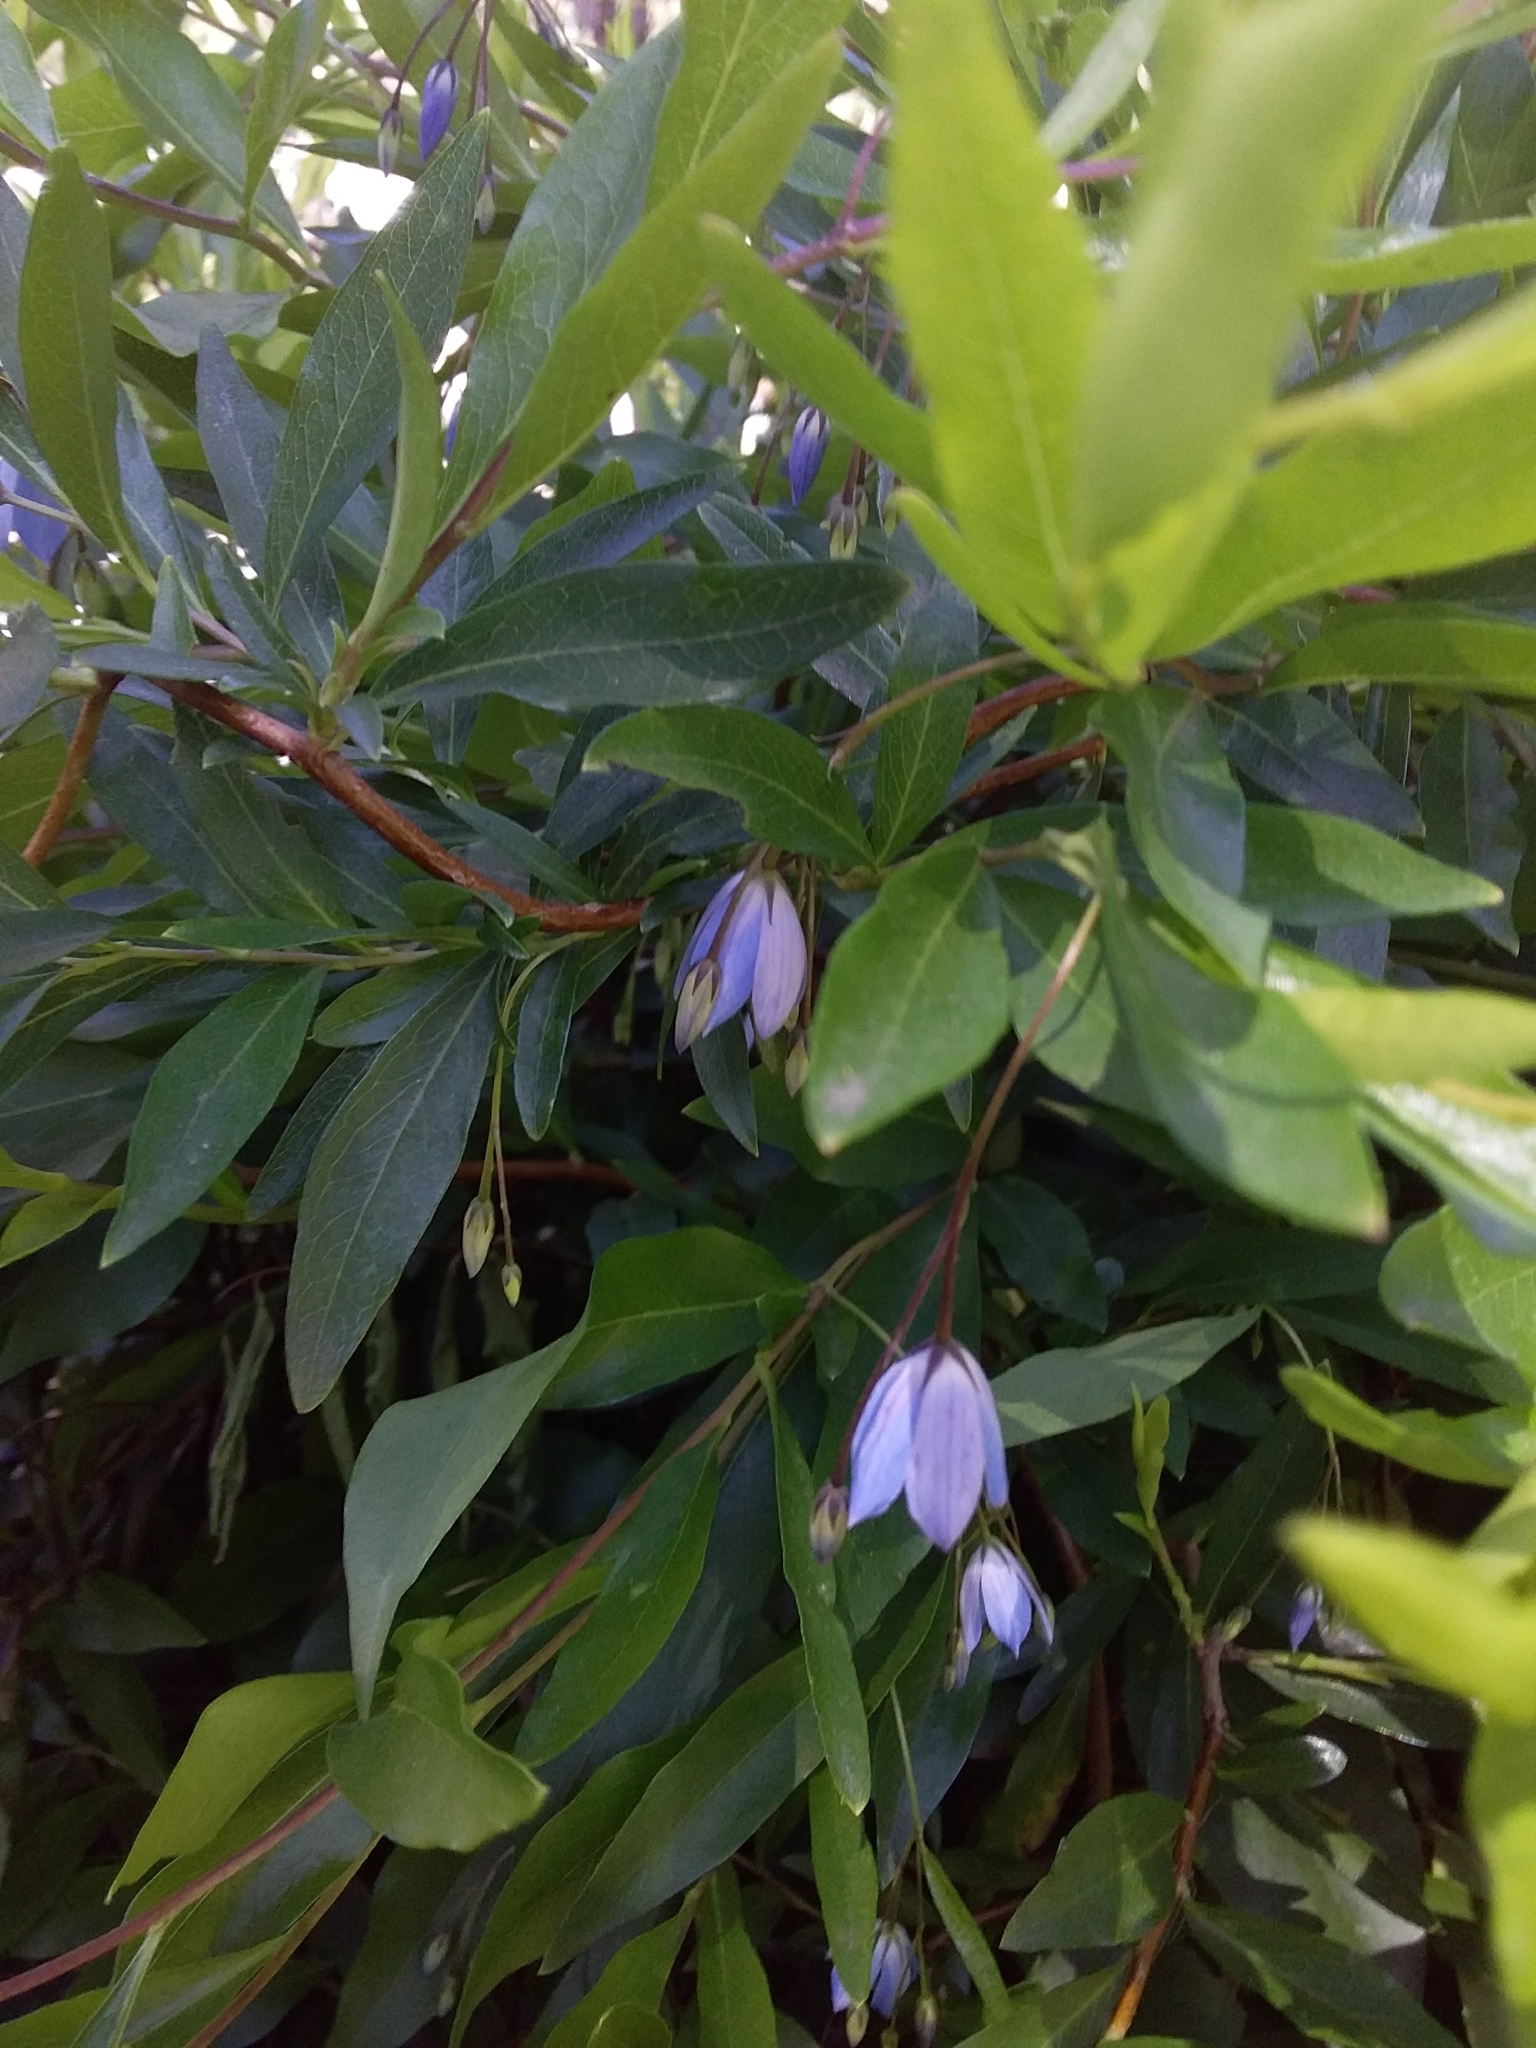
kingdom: Plantae
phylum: Tracheophyta
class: Magnoliopsida
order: Apiales
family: Pittosporaceae
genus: Billardiera
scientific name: Billardiera fusiformis
